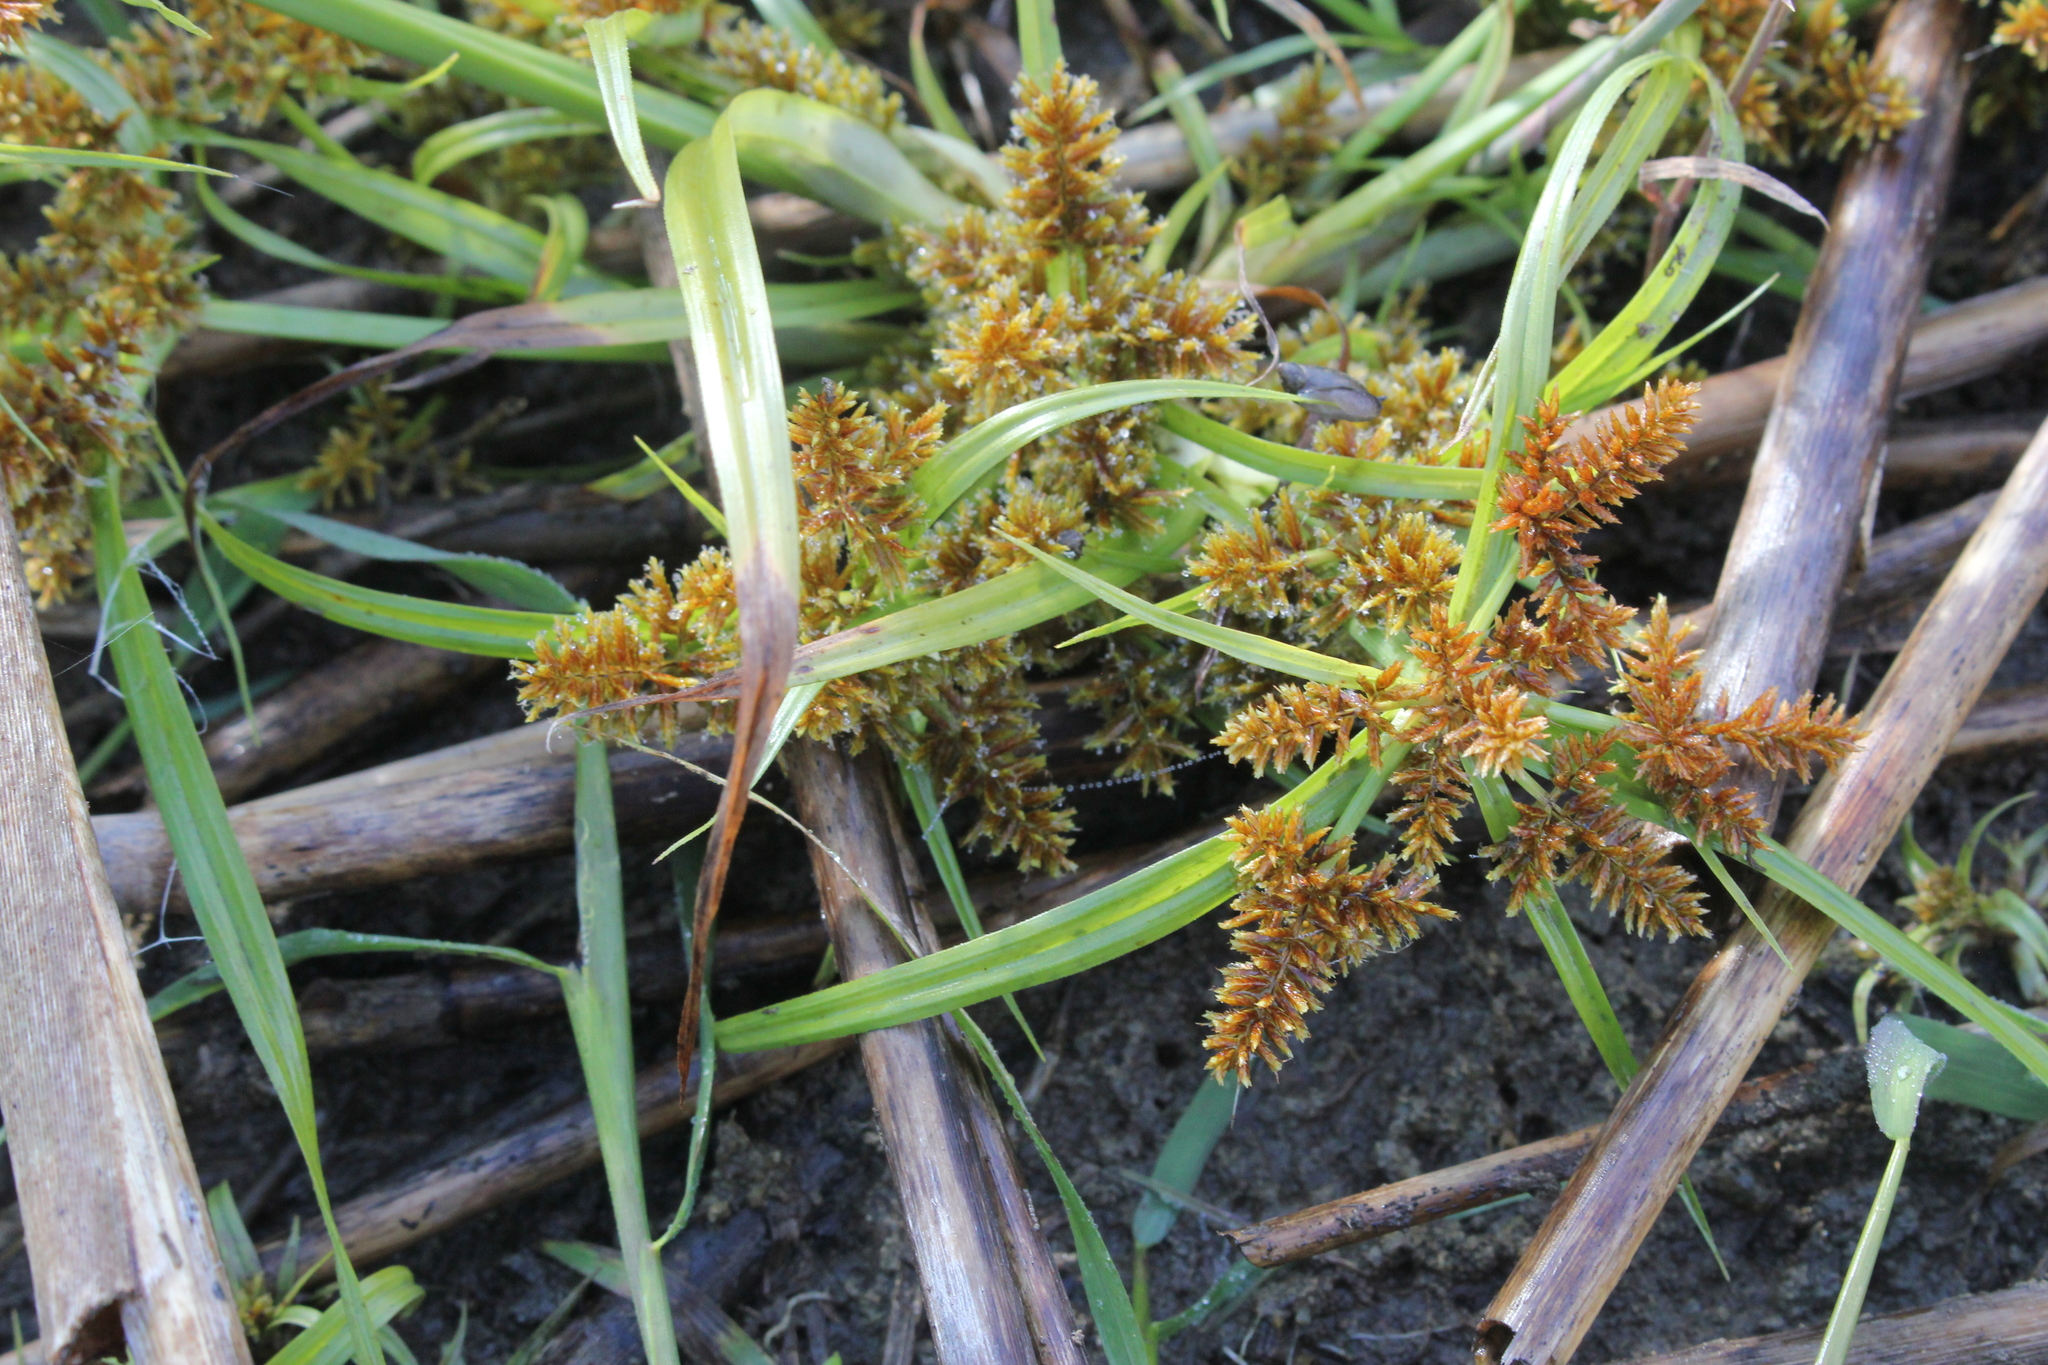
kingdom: Plantae
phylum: Tracheophyta
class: Liliopsida
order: Poales
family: Cyperaceae
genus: Cyperus
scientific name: Cyperus erythrorhizos
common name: Red-root flat sedge
